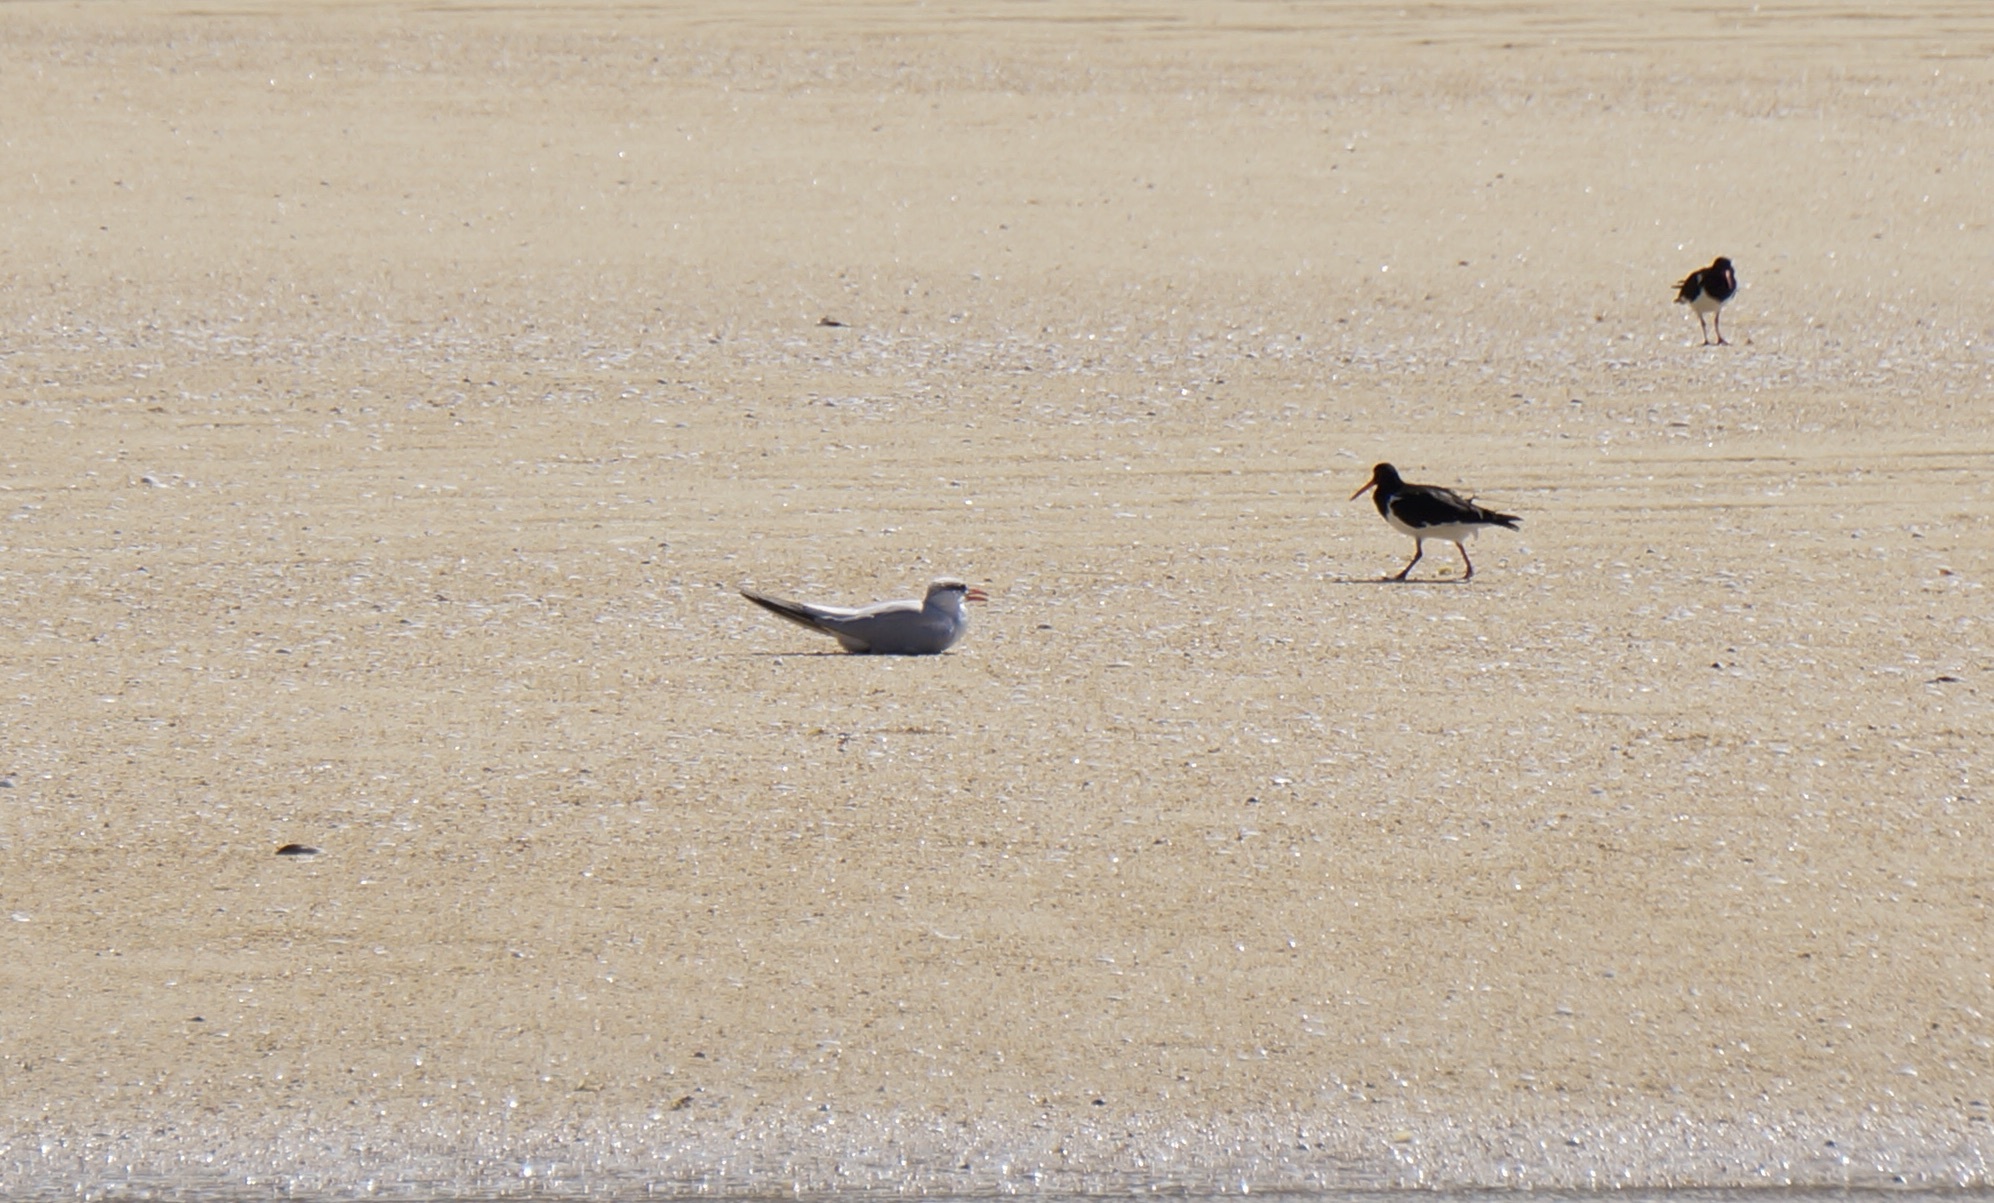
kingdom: Animalia
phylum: Chordata
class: Aves
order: Charadriiformes
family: Laridae
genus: Hydroprogne
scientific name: Hydroprogne caspia
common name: Caspian tern
